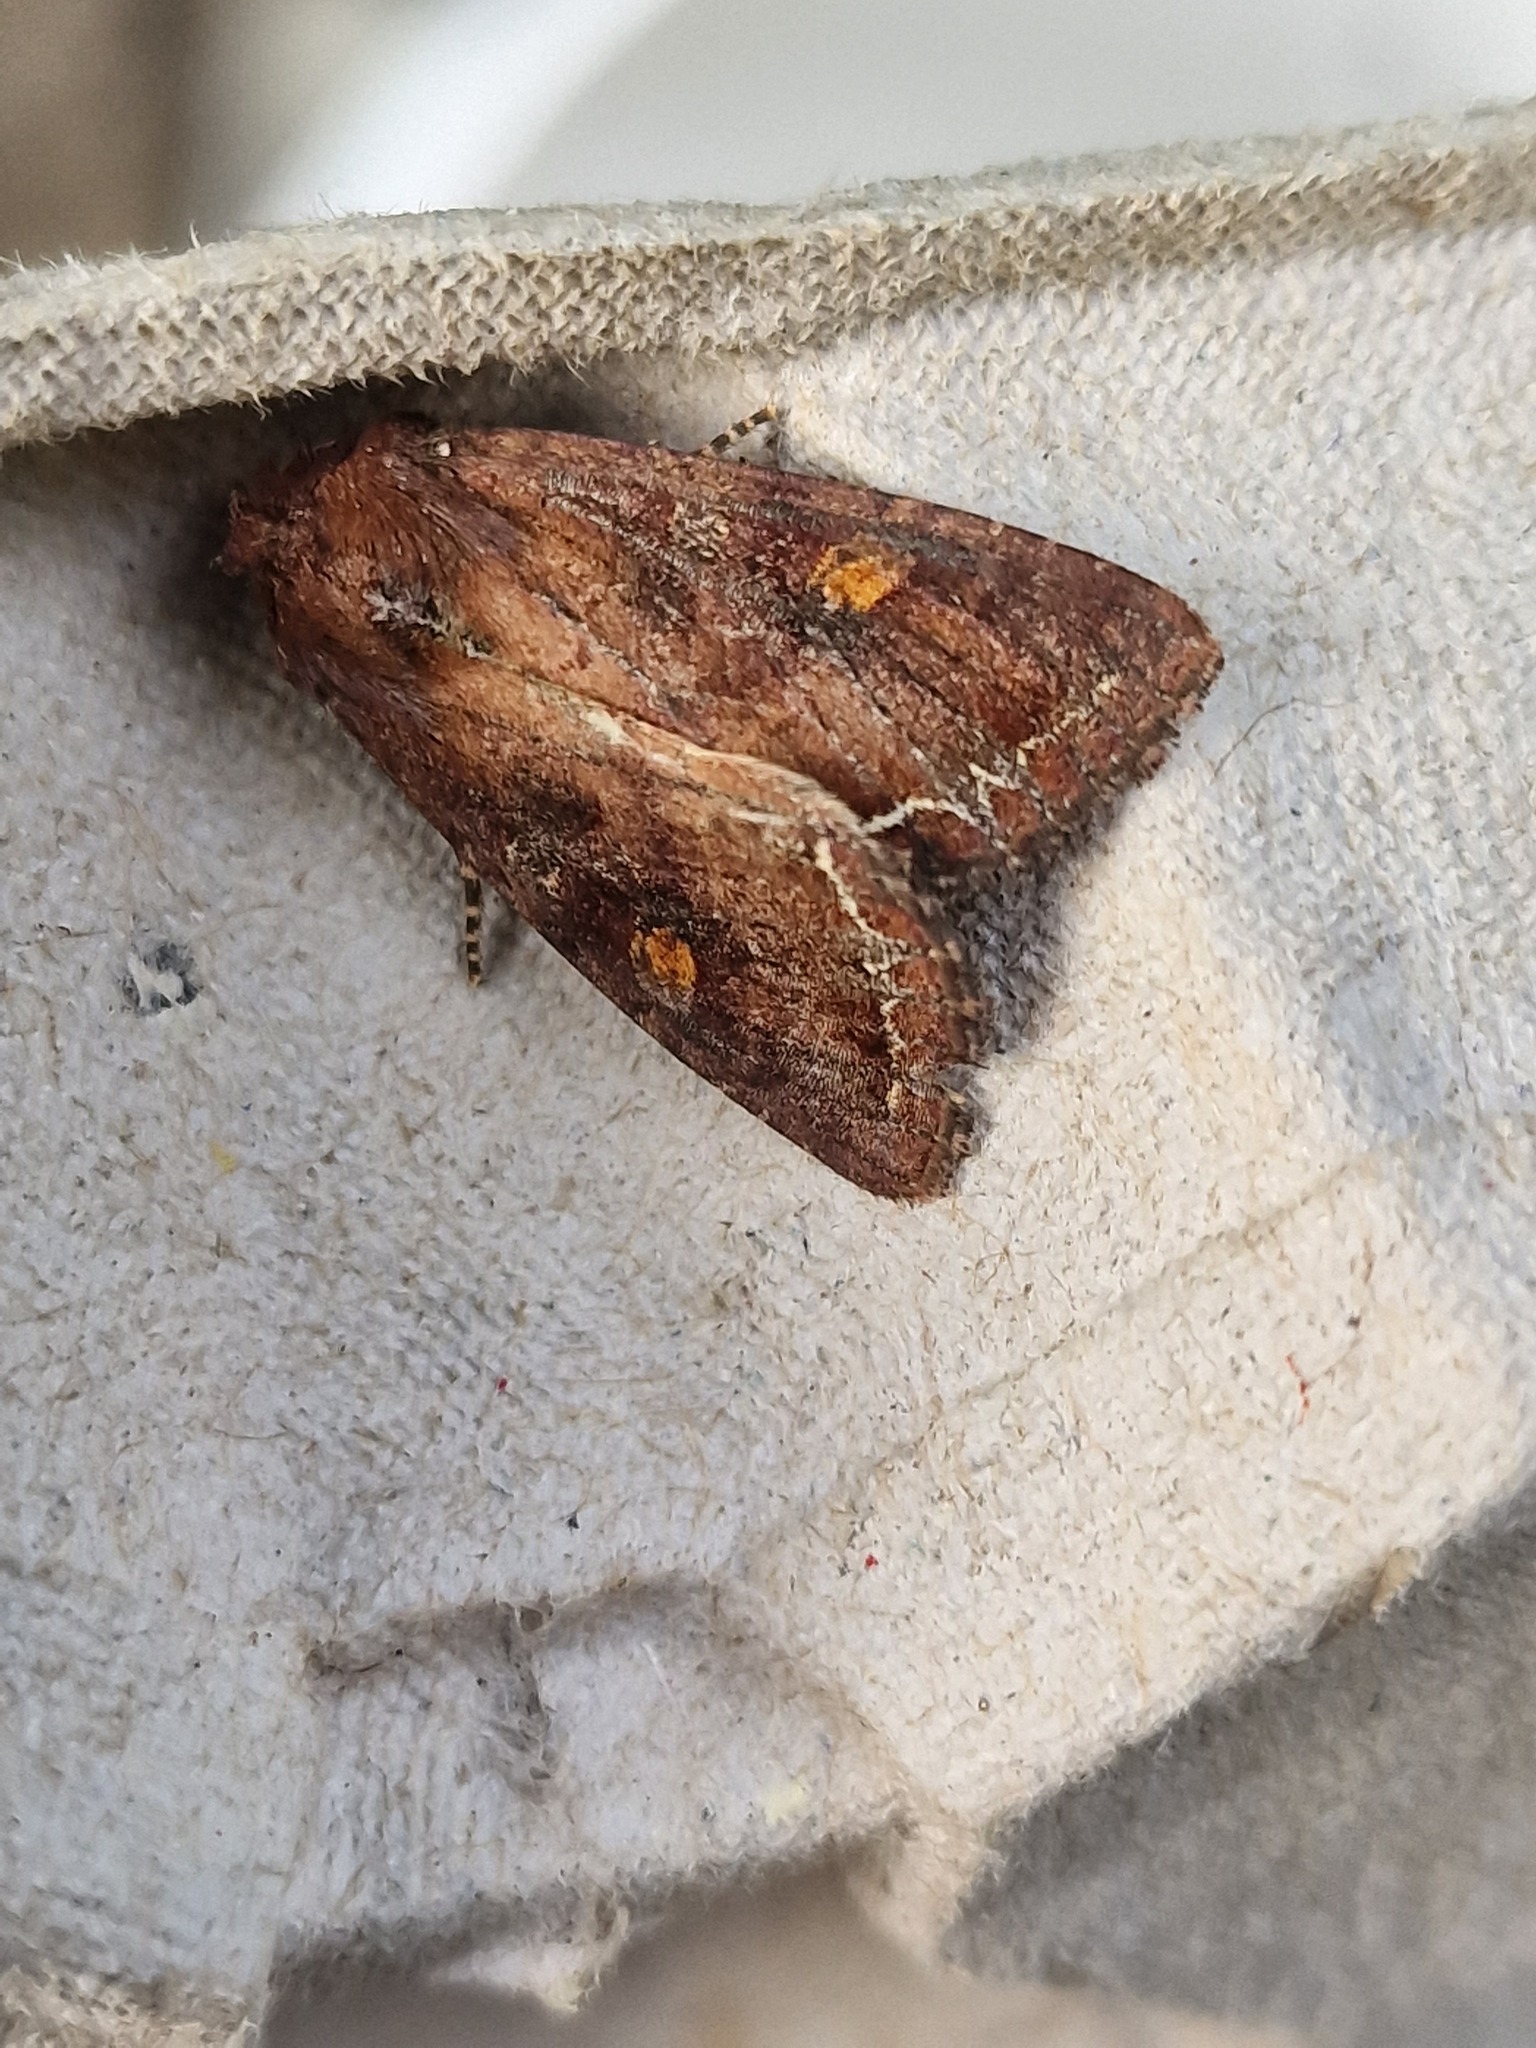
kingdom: Animalia
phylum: Arthropoda
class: Insecta
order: Lepidoptera
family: Noctuidae
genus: Lacanobia
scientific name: Lacanobia oleracea
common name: Bright-line brown-eye
